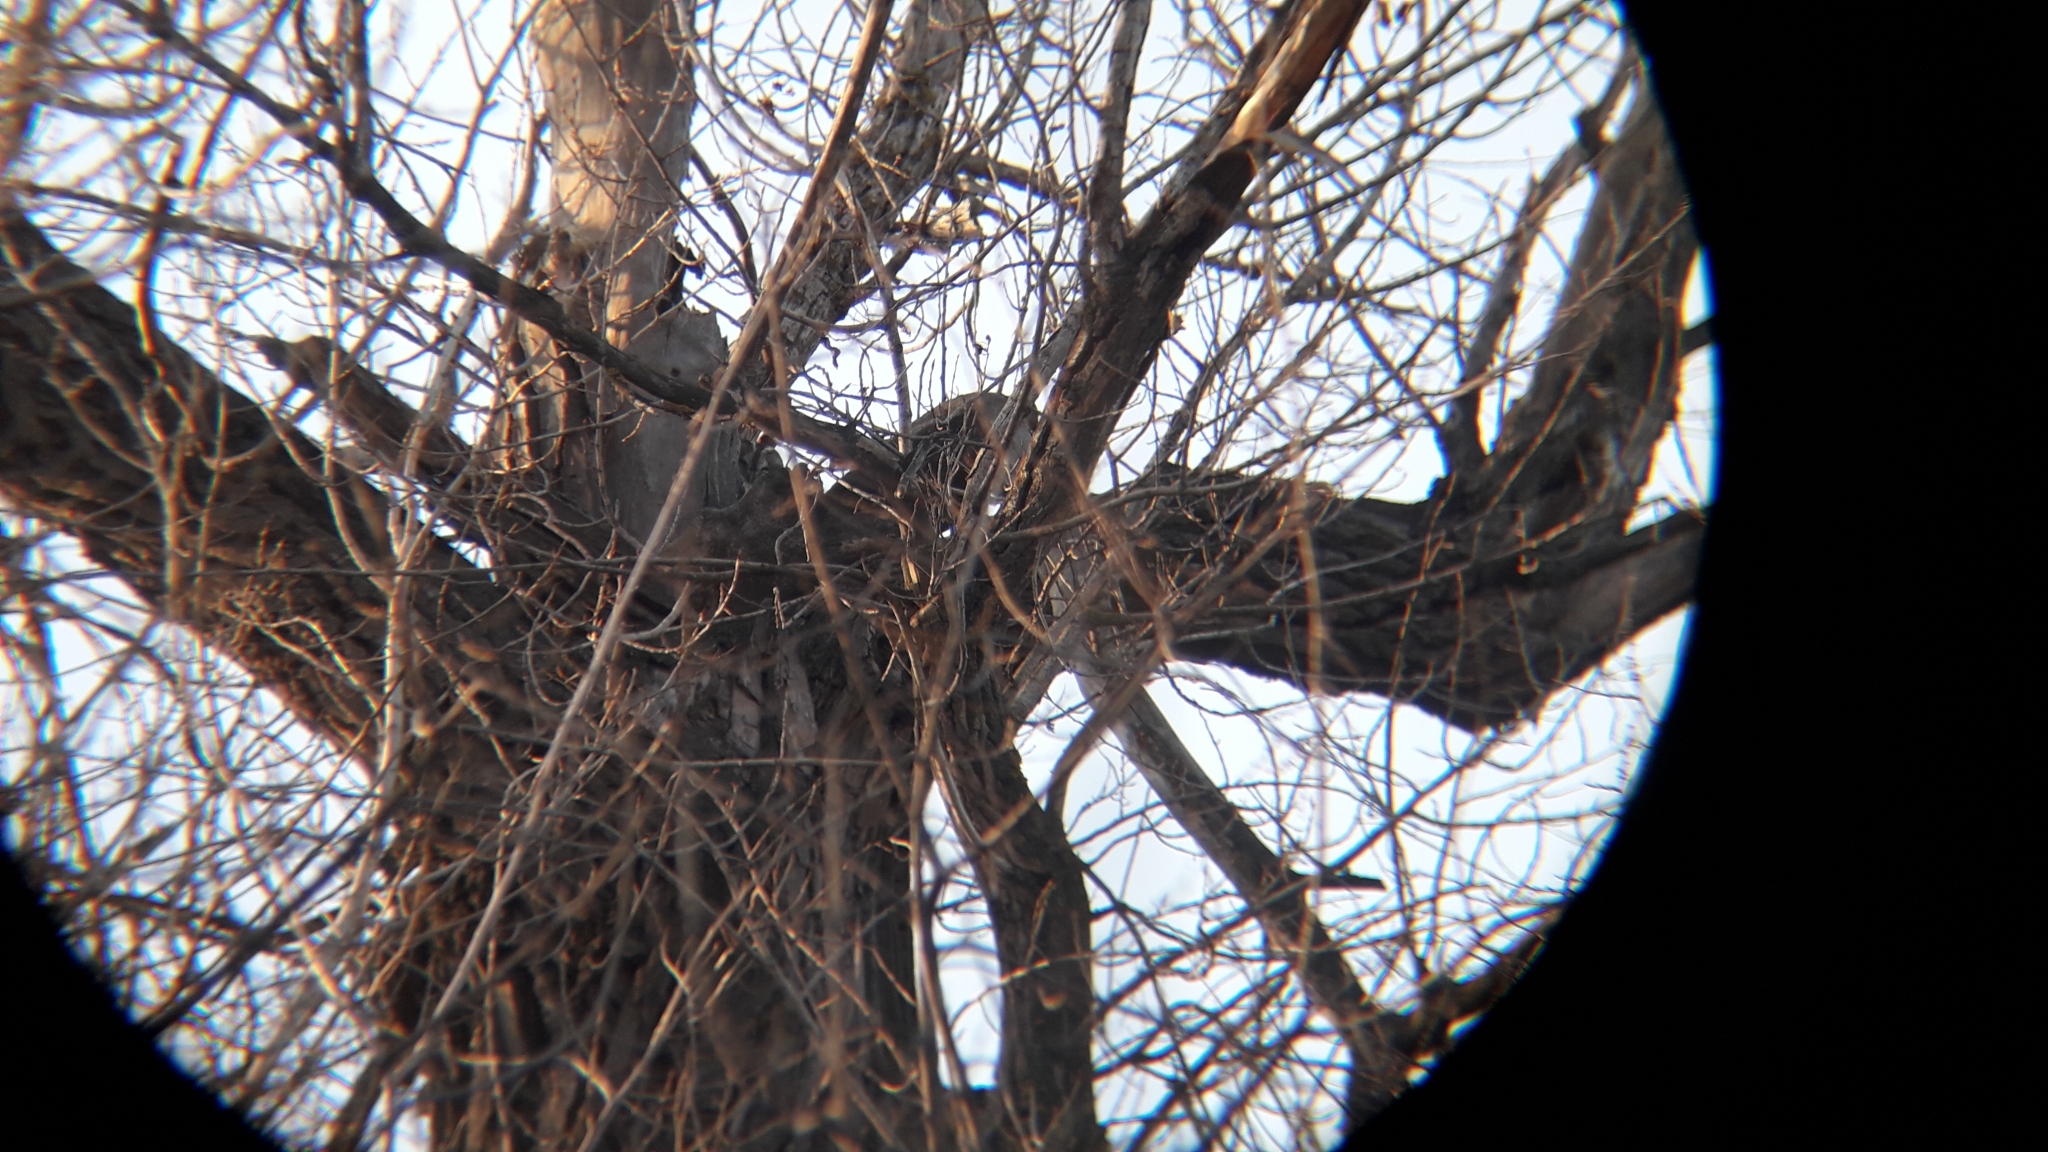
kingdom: Animalia
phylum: Chordata
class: Aves
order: Strigiformes
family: Strigidae
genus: Strix
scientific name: Strix aluco
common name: Tawny owl
